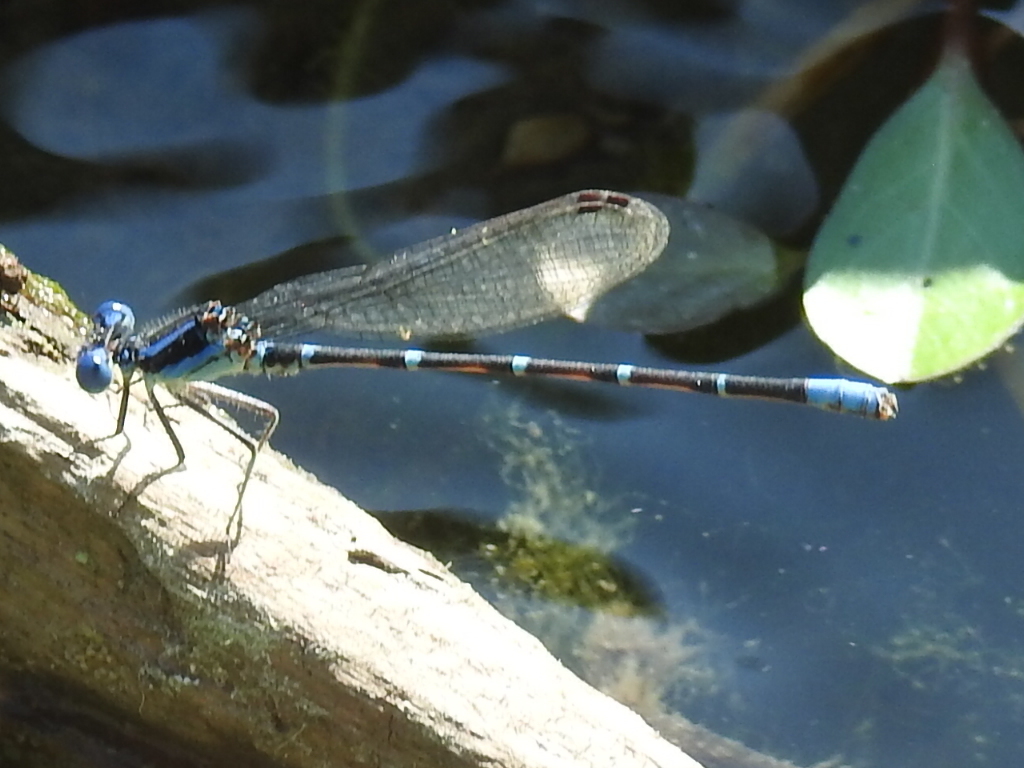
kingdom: Animalia
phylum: Arthropoda
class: Insecta
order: Odonata
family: Coenagrionidae
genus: Argia
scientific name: Argia sedula
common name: Blue-ringed dancer
